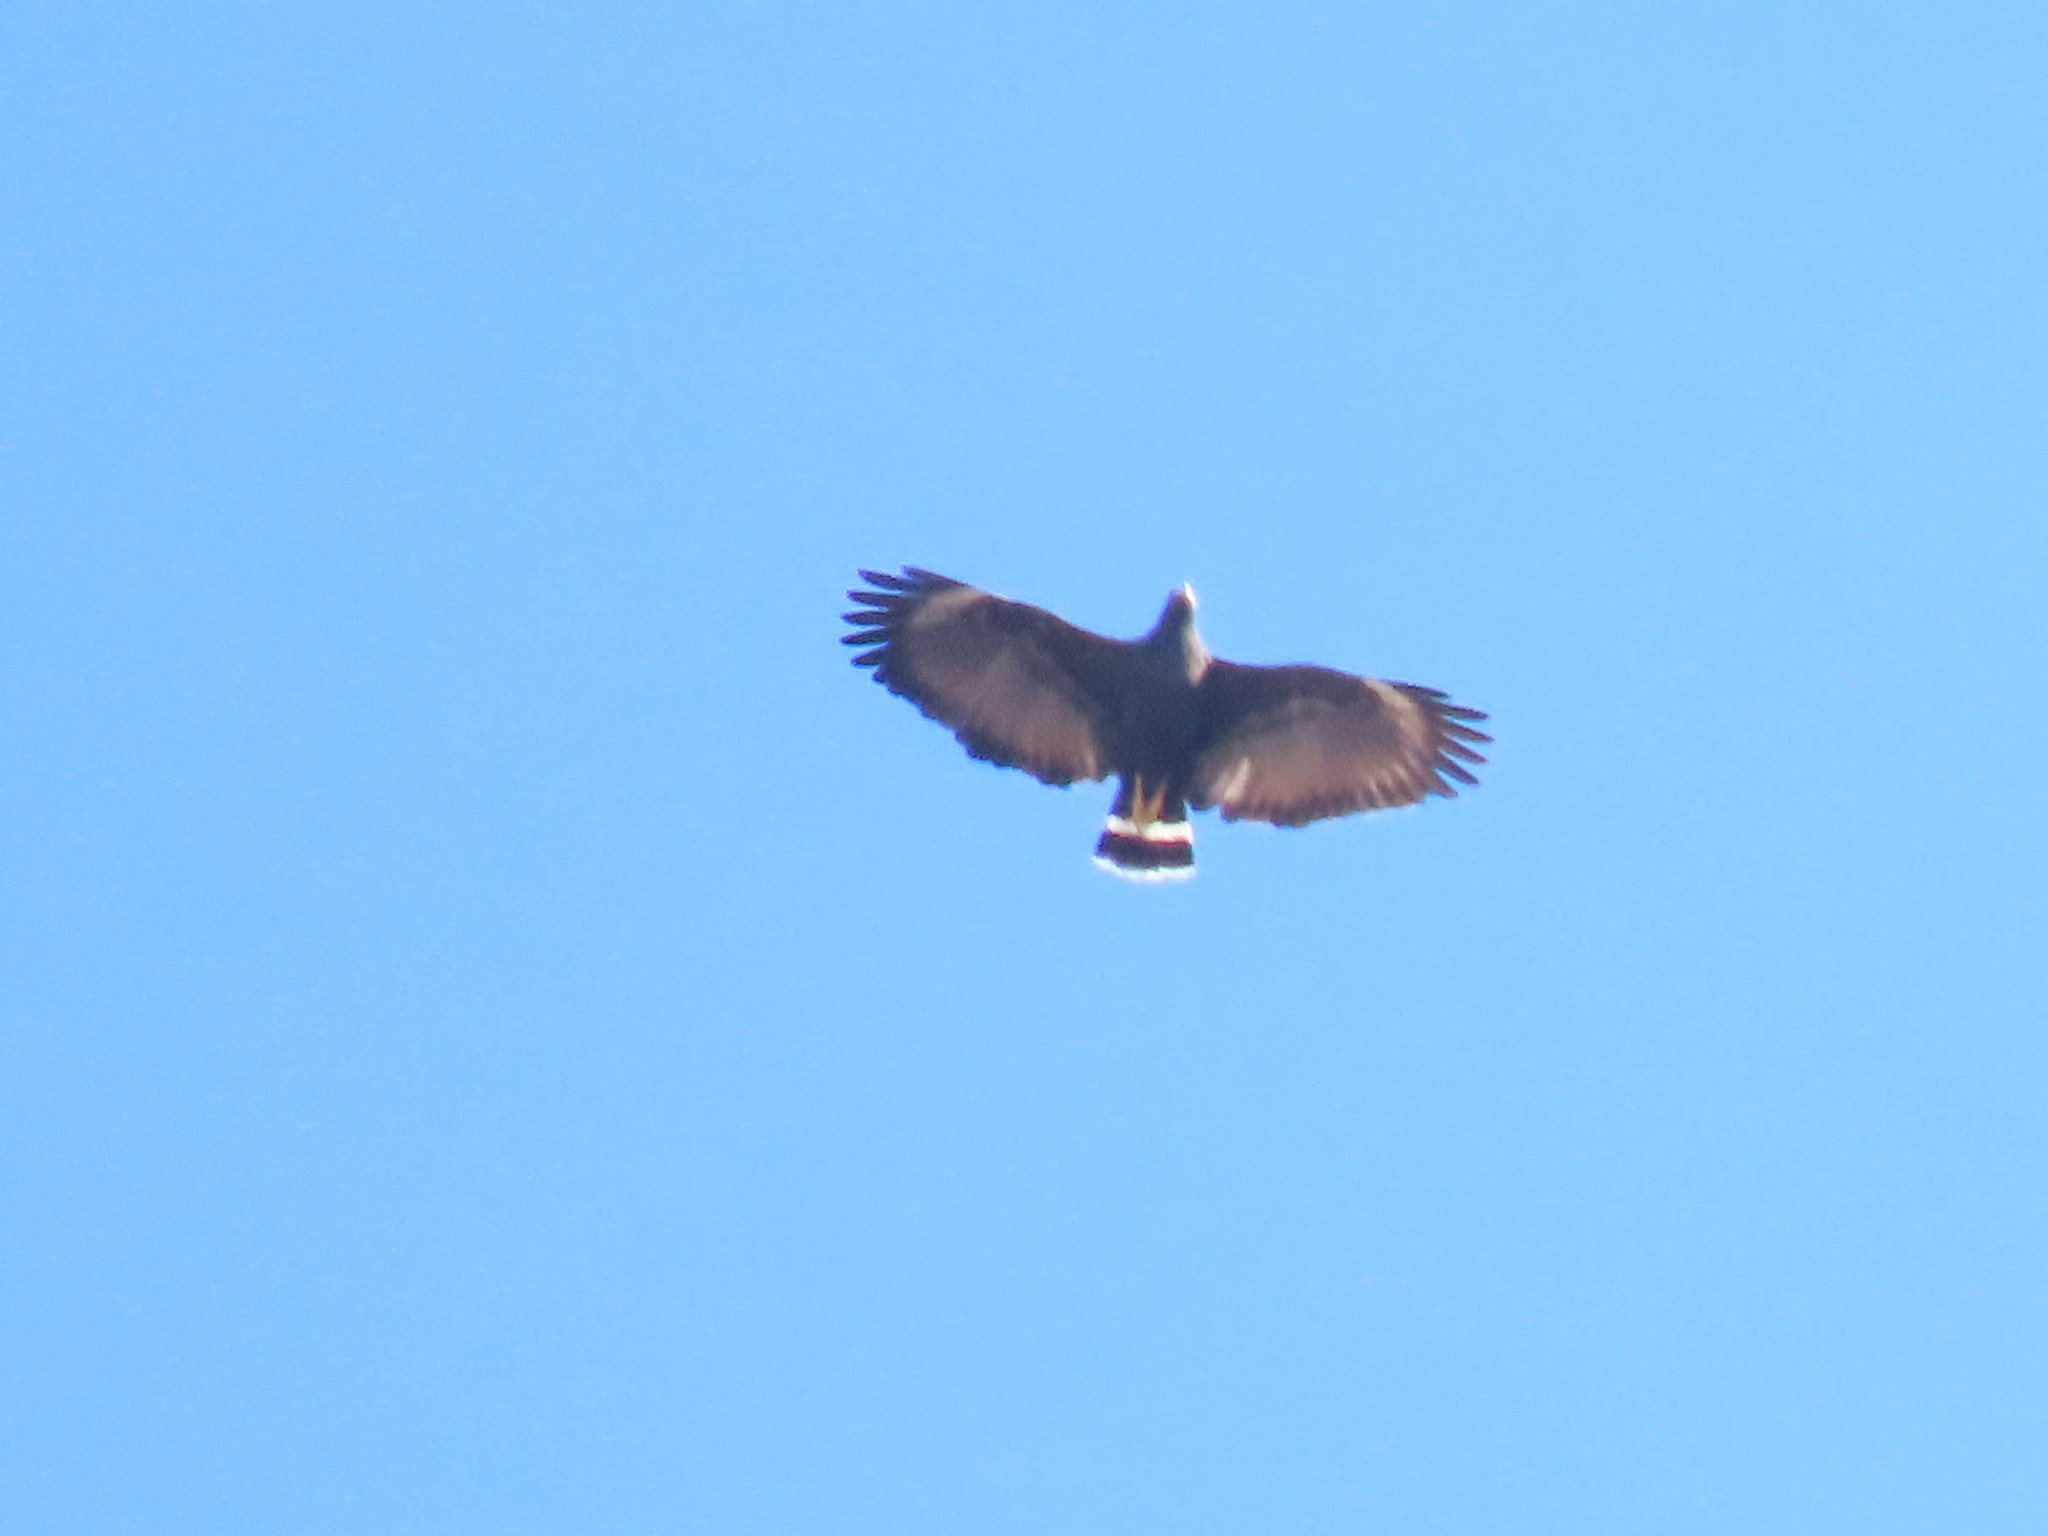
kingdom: Animalia
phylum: Chordata
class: Aves
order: Accipitriformes
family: Accipitridae
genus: Buteogallus
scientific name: Buteogallus anthracinus
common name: Common black hawk
